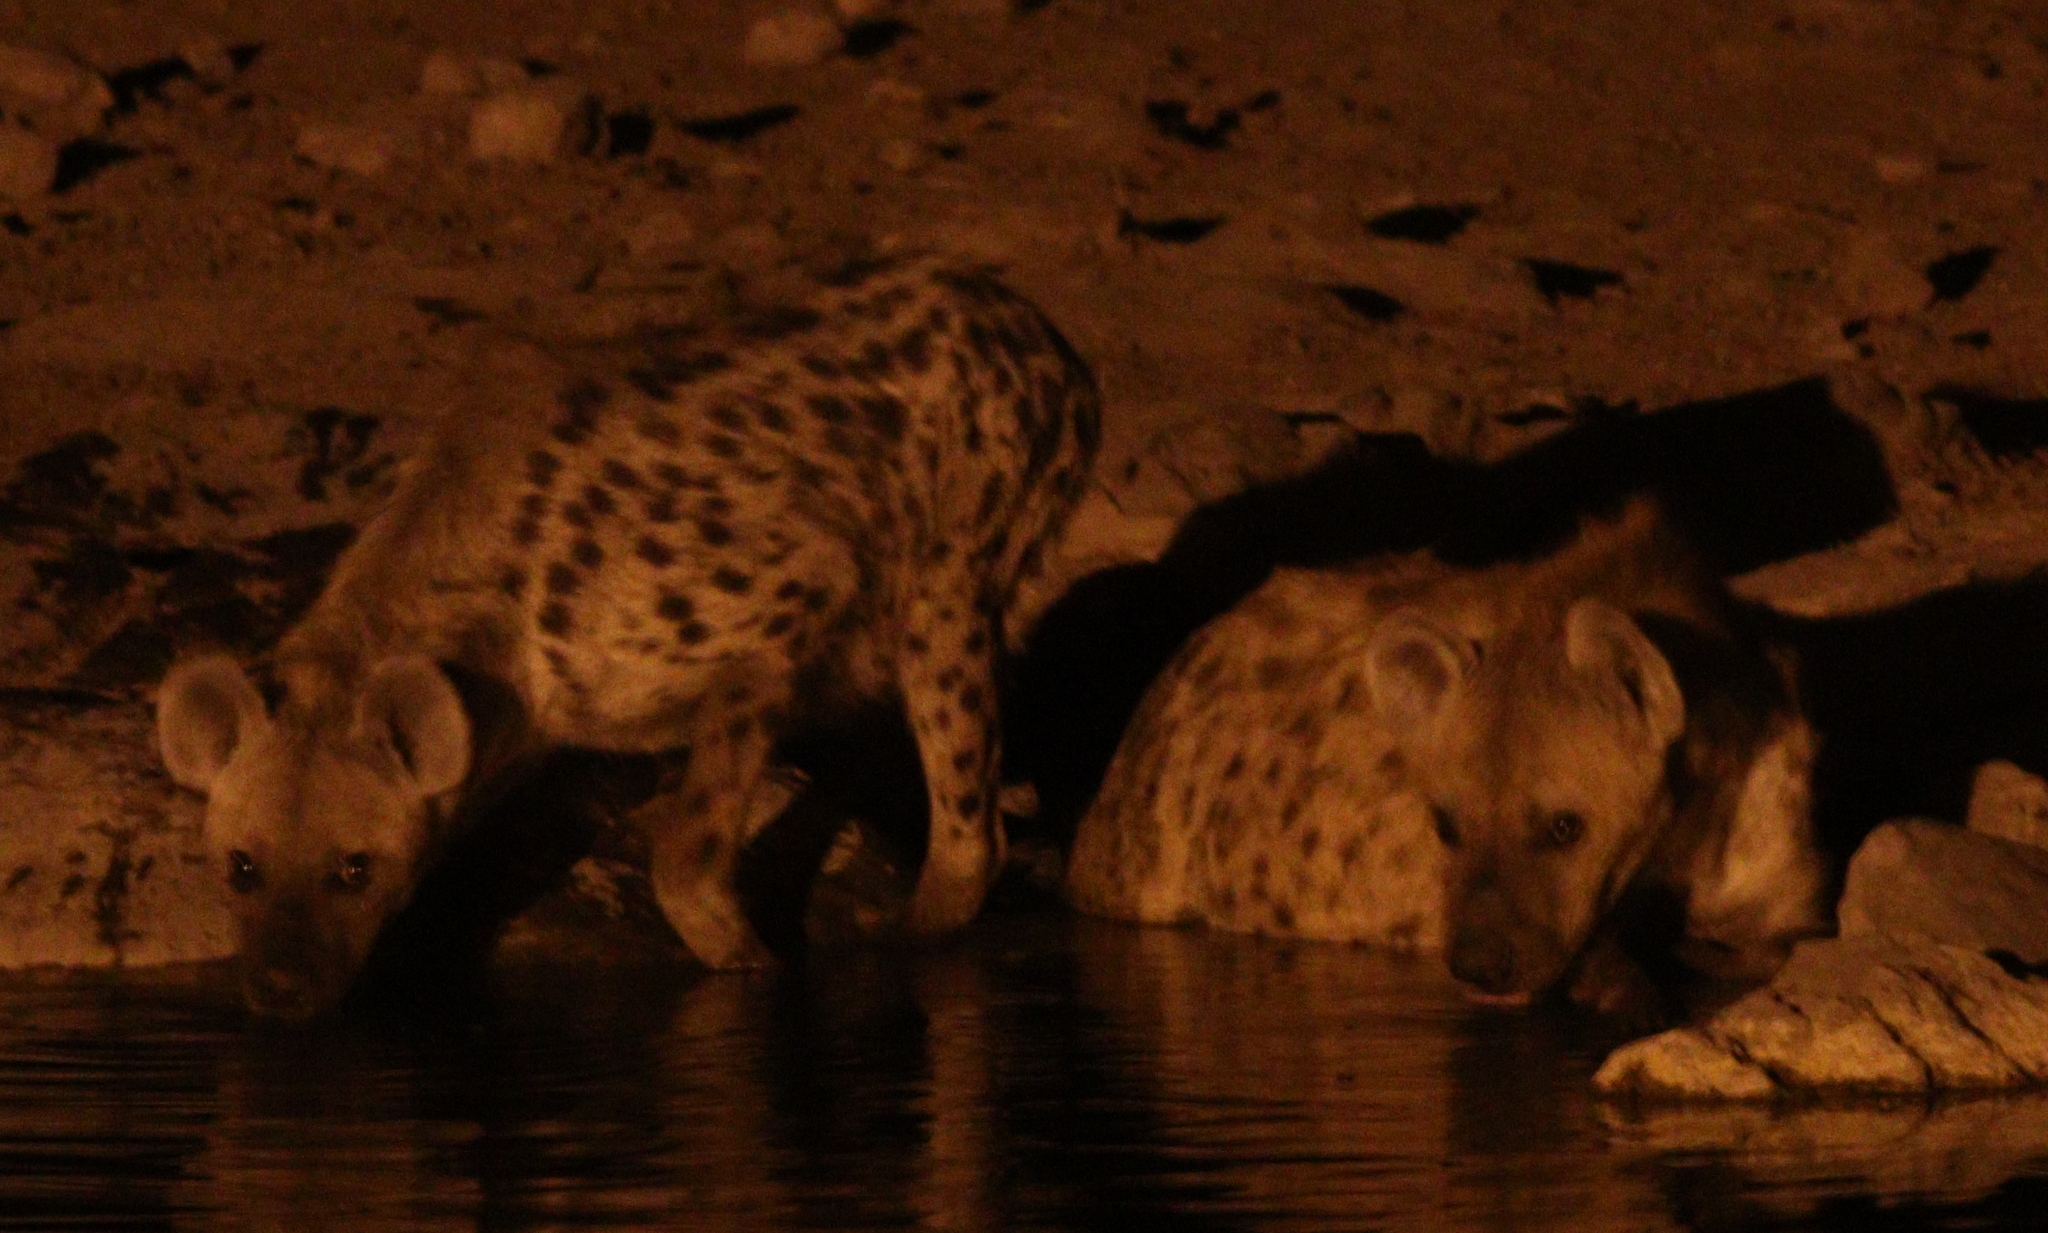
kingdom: Animalia
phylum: Chordata
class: Mammalia
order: Carnivora
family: Hyaenidae
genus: Crocuta
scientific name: Crocuta crocuta
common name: Spotted hyaena
